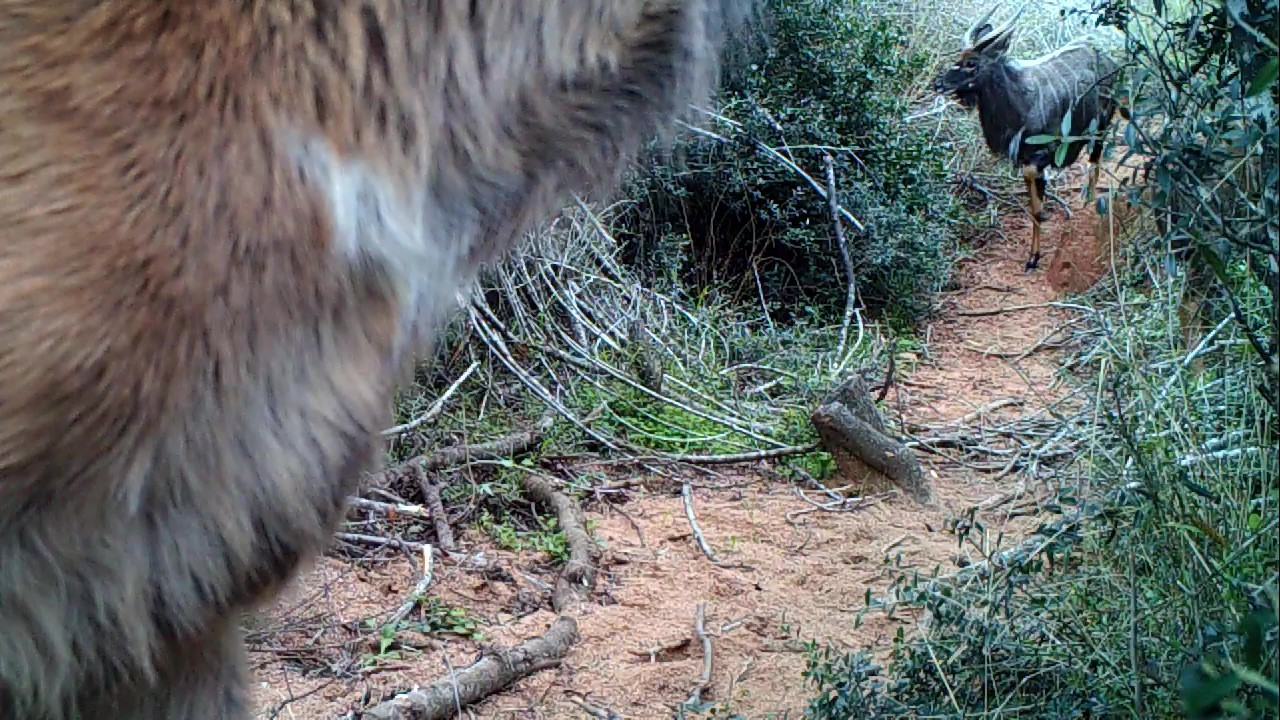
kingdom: Animalia
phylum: Chordata
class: Mammalia
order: Artiodactyla
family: Bovidae
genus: Tragelaphus
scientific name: Tragelaphus angasii
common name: Nyala
